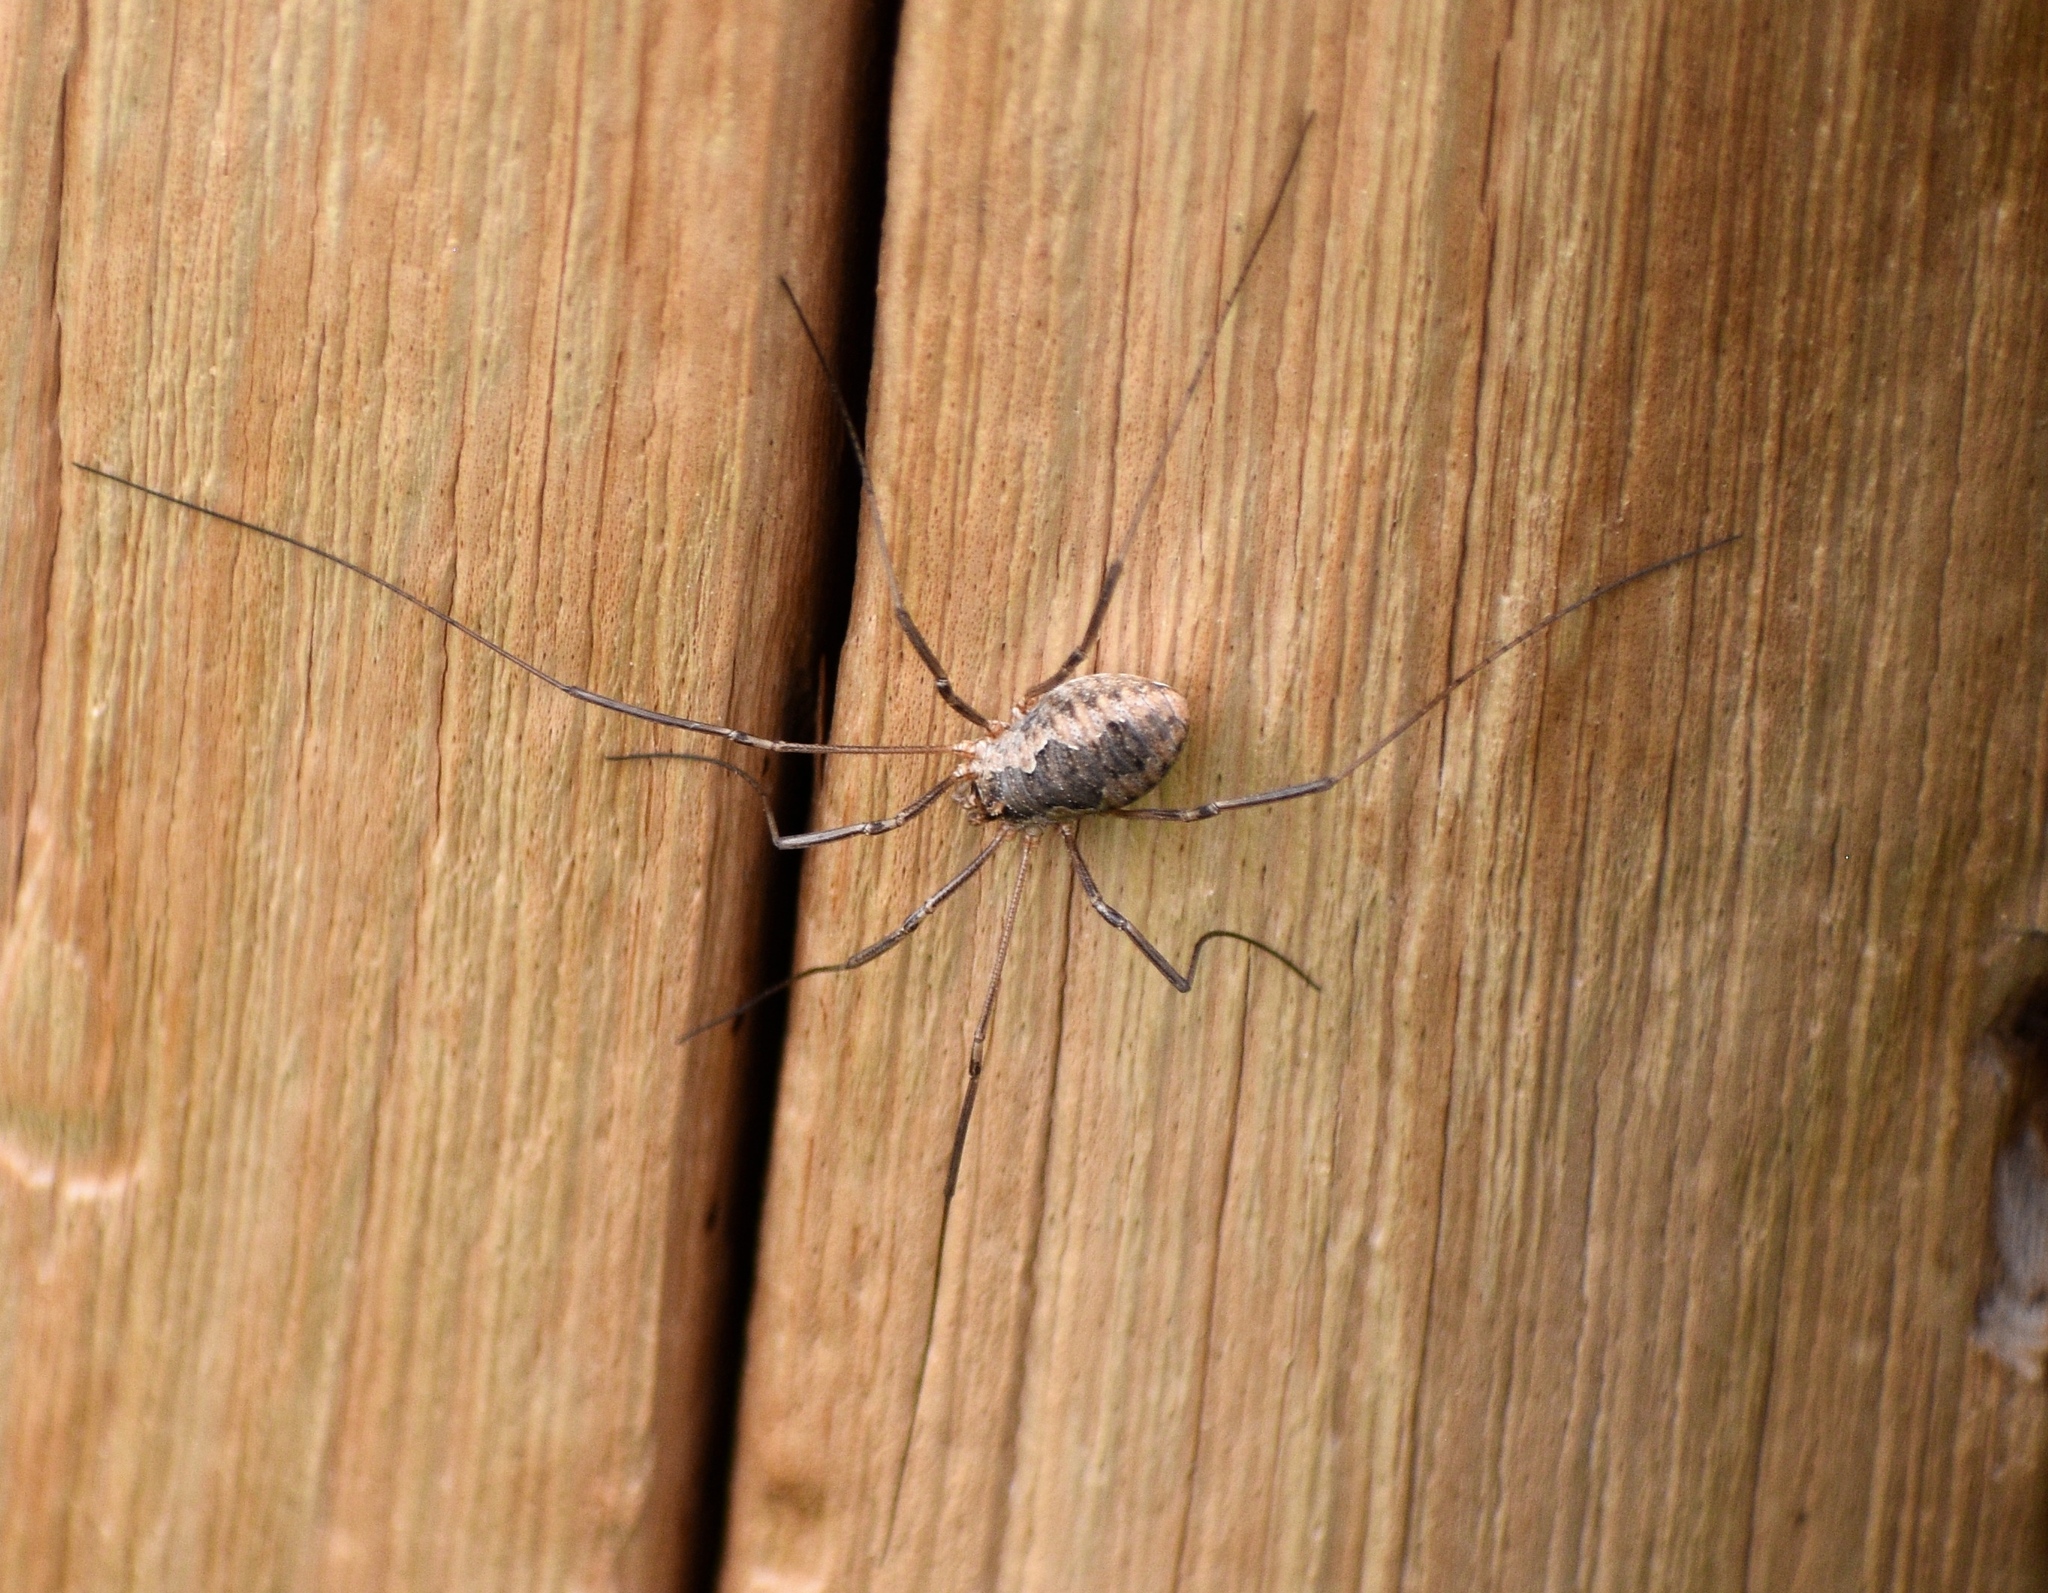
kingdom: Animalia
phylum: Arthropoda
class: Arachnida
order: Opiliones
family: Phalangiidae
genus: Phalangium
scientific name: Phalangium opilio
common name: Daddy longleg
